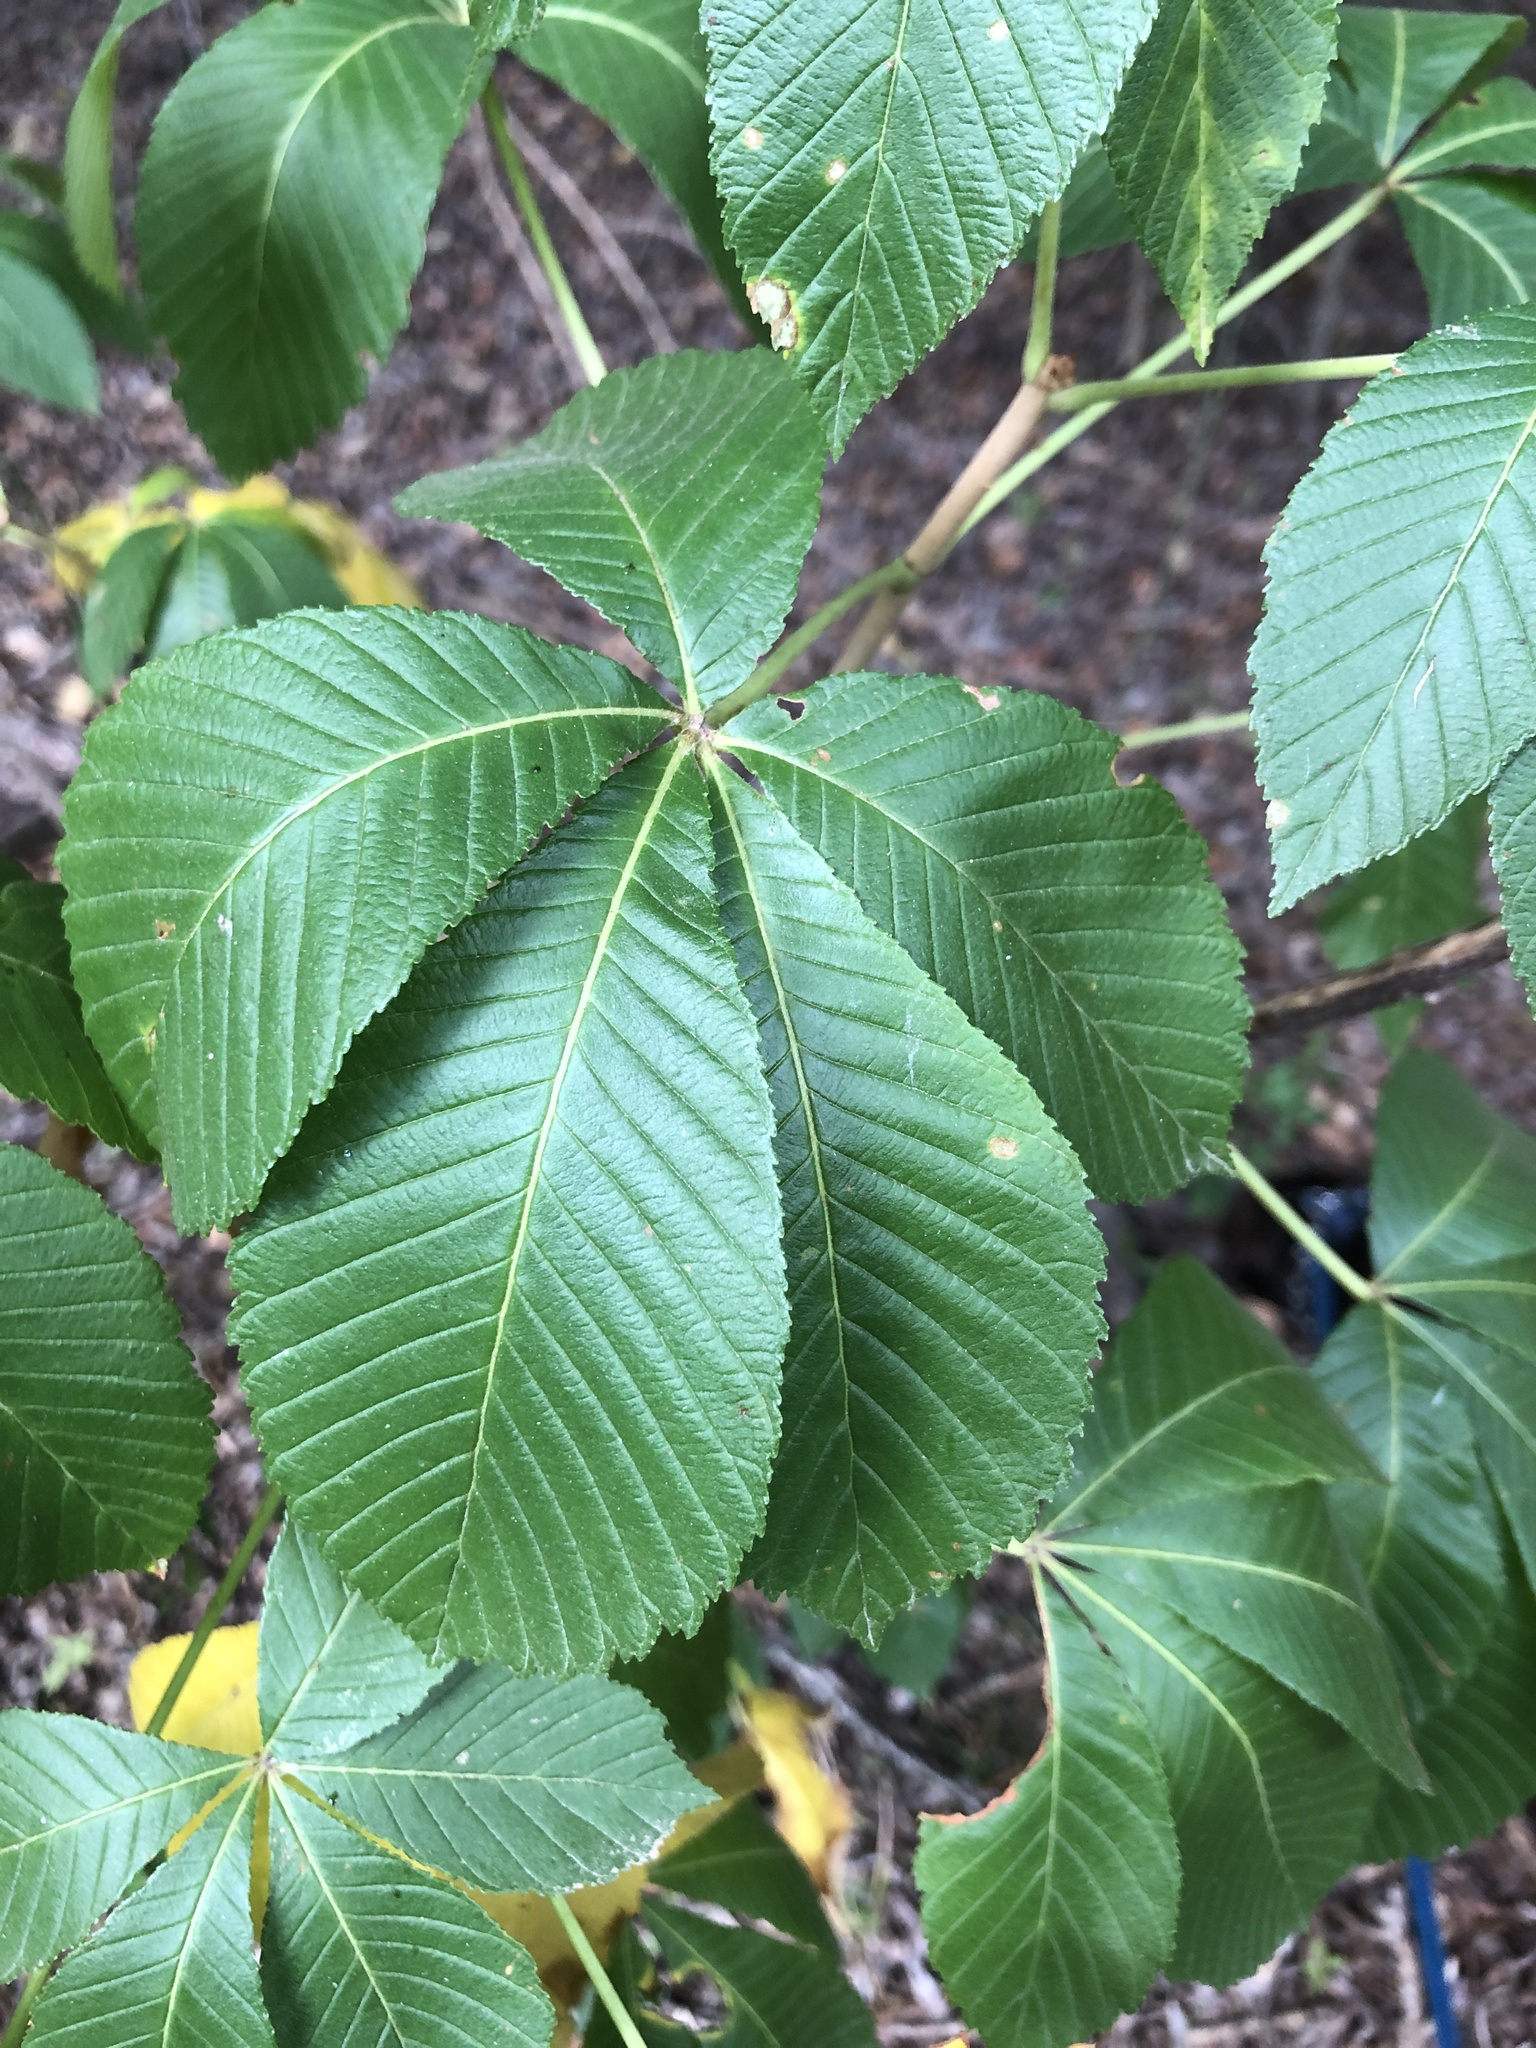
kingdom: Plantae
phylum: Tracheophyta
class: Magnoliopsida
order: Sapindales
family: Sapindaceae
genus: Aesculus
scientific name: Aesculus pavia
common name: Red buckeye
